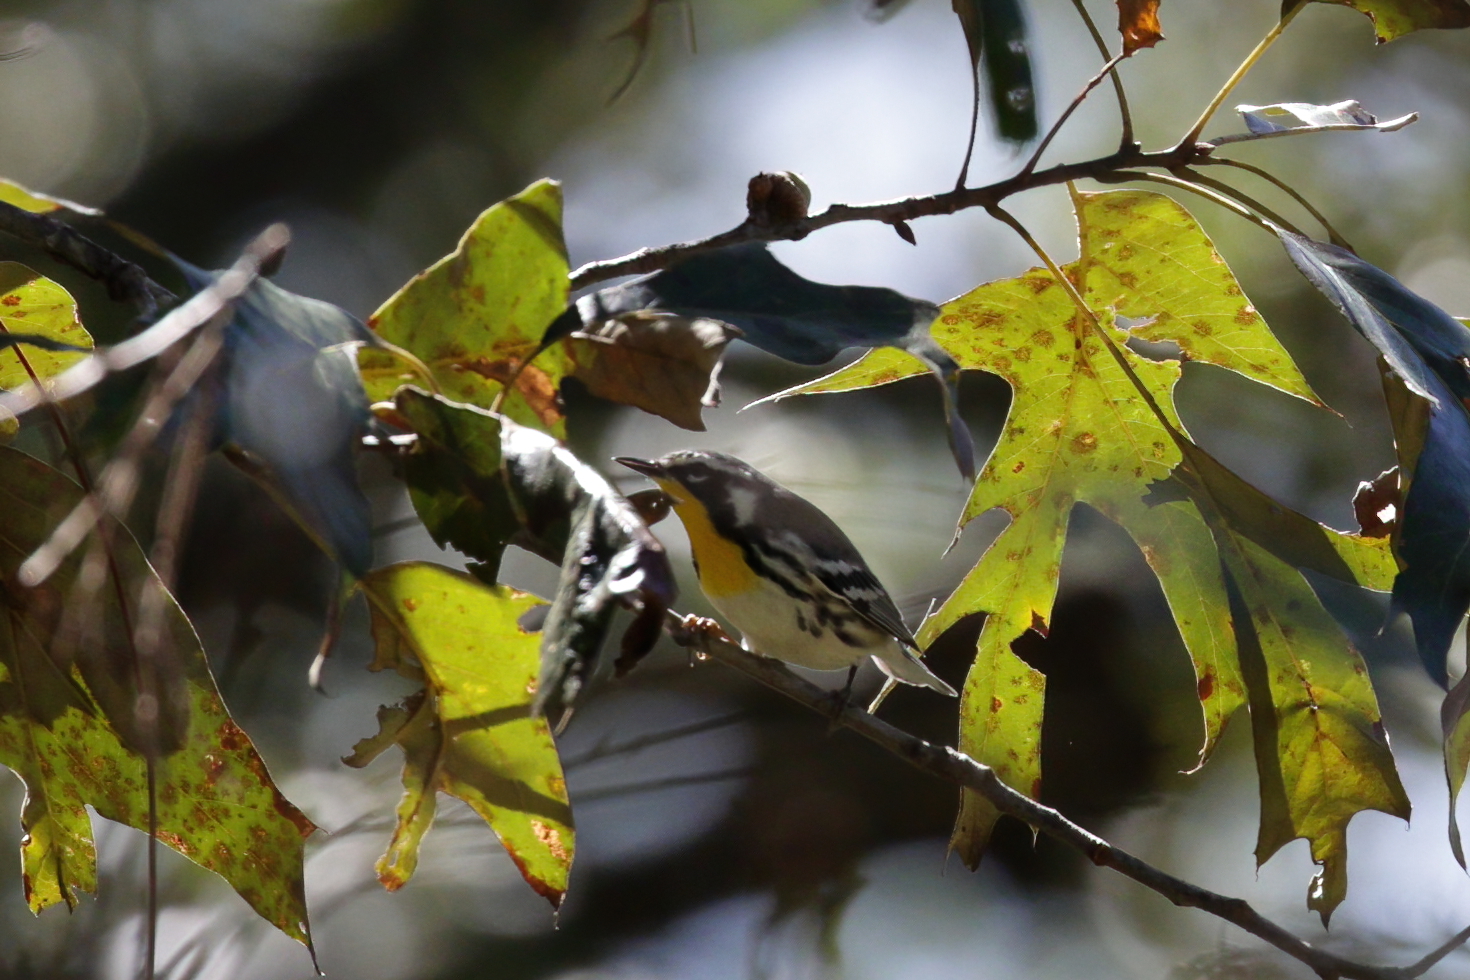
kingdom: Animalia
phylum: Chordata
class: Aves
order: Passeriformes
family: Parulidae
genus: Setophaga
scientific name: Setophaga dominica
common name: Yellow-throated warbler
